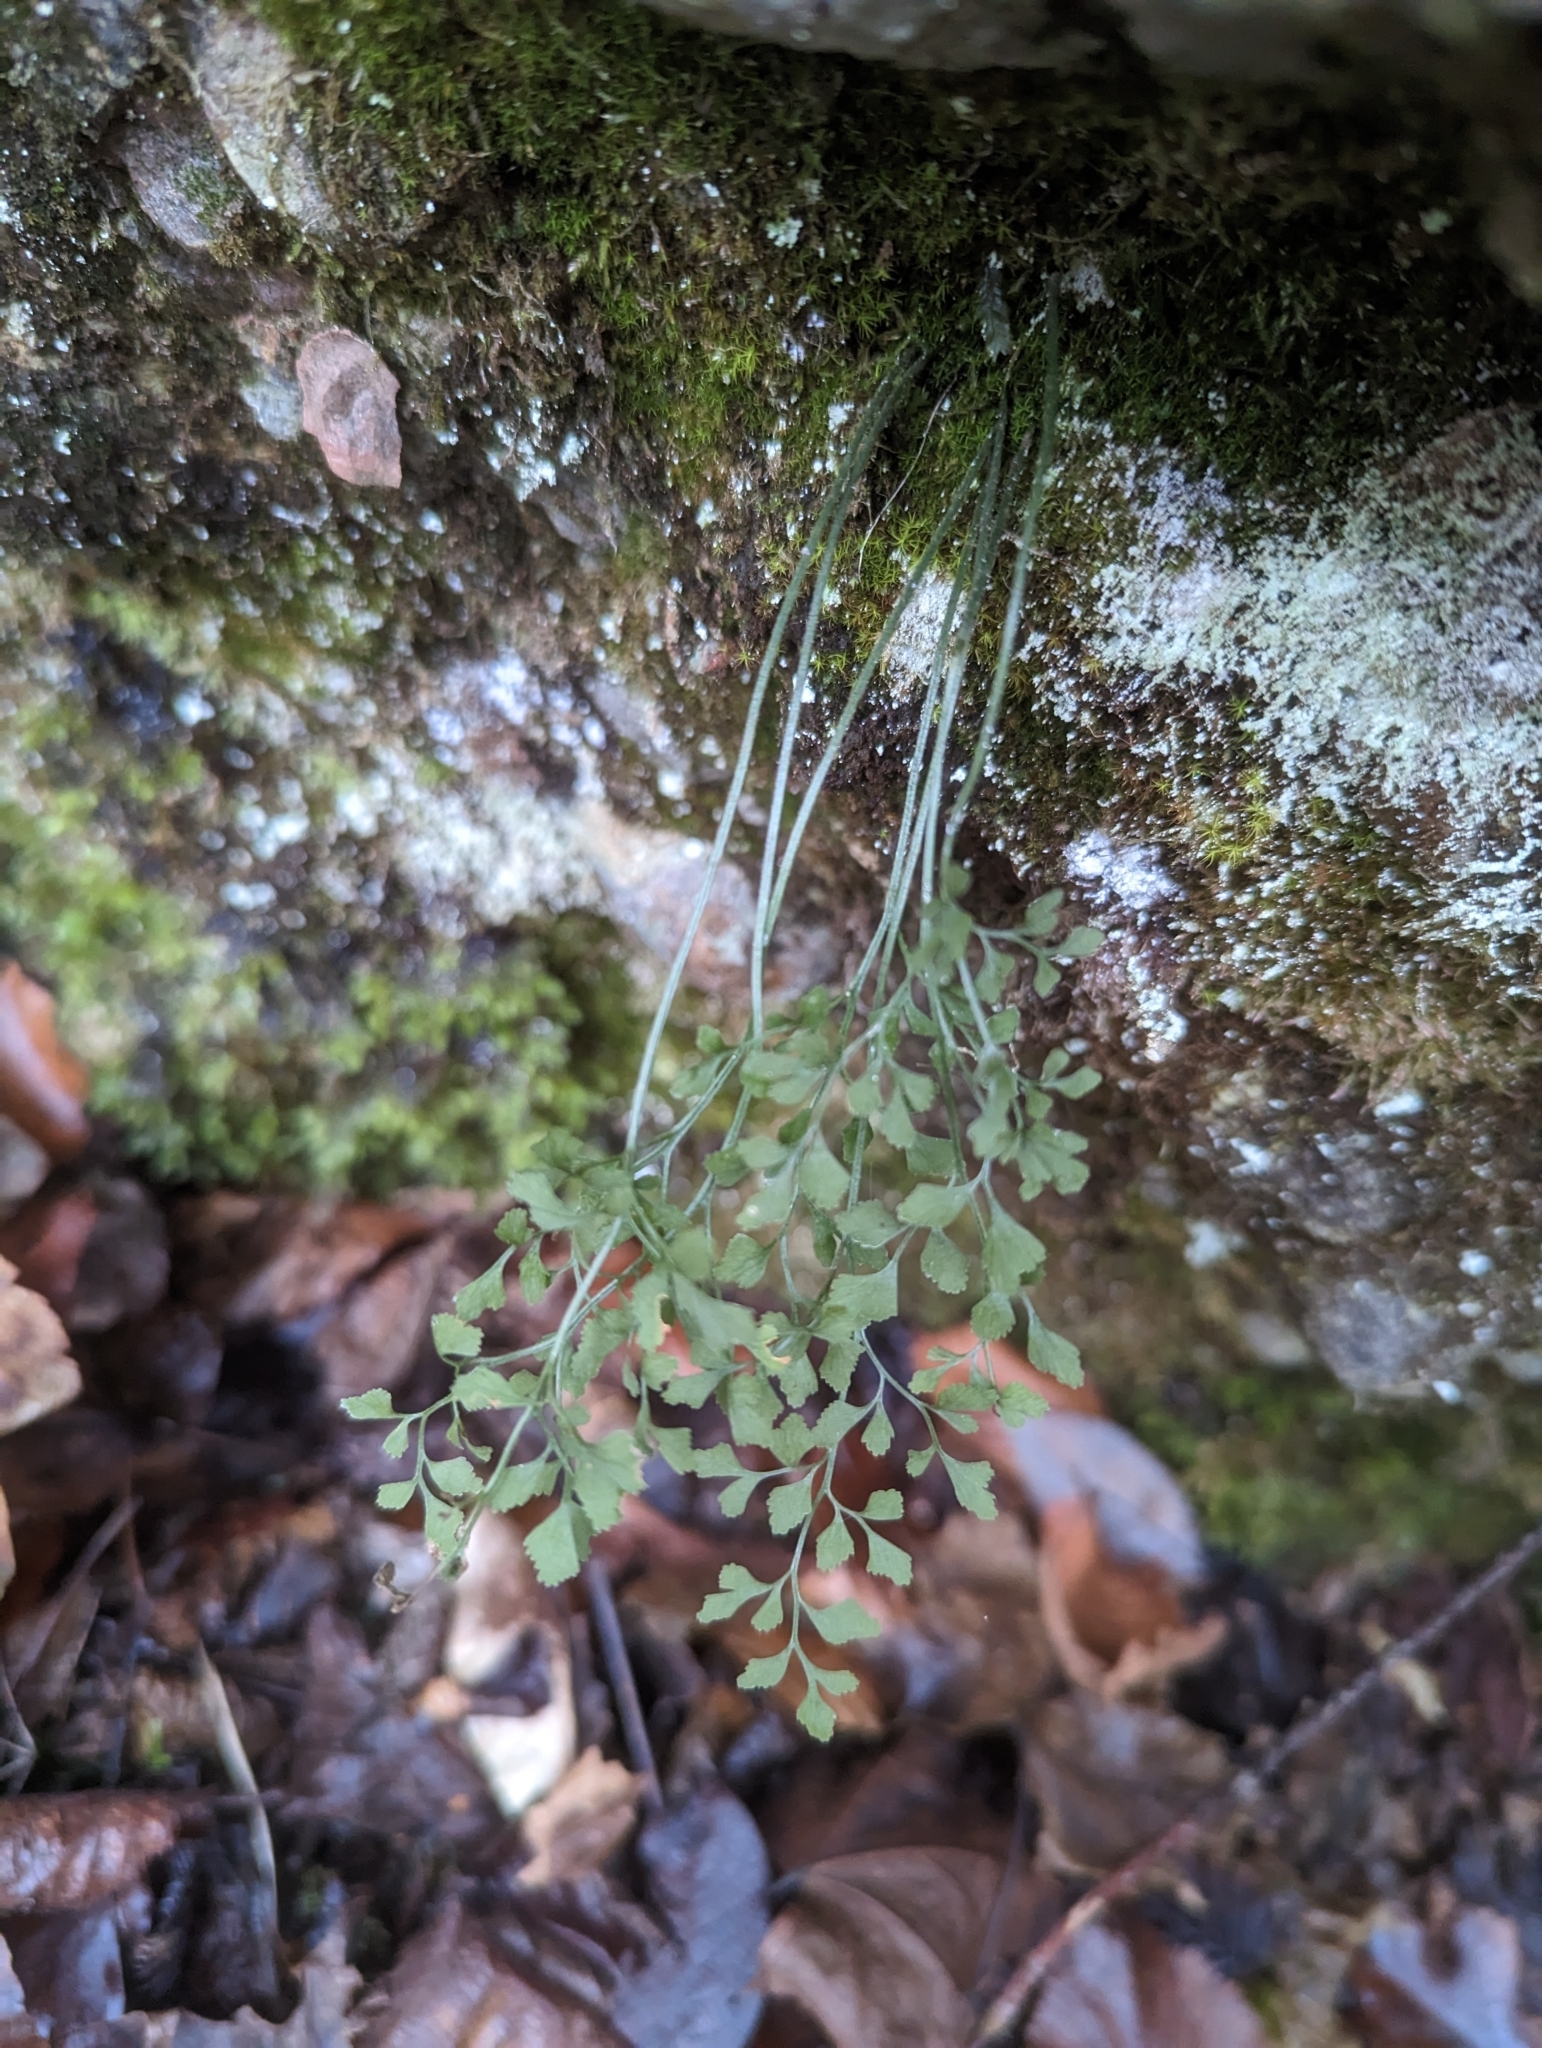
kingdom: Plantae
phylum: Tracheophyta
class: Polypodiopsida
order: Polypodiales
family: Aspleniaceae
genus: Asplenium
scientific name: Asplenium ruta-muraria
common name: Wall-rue
